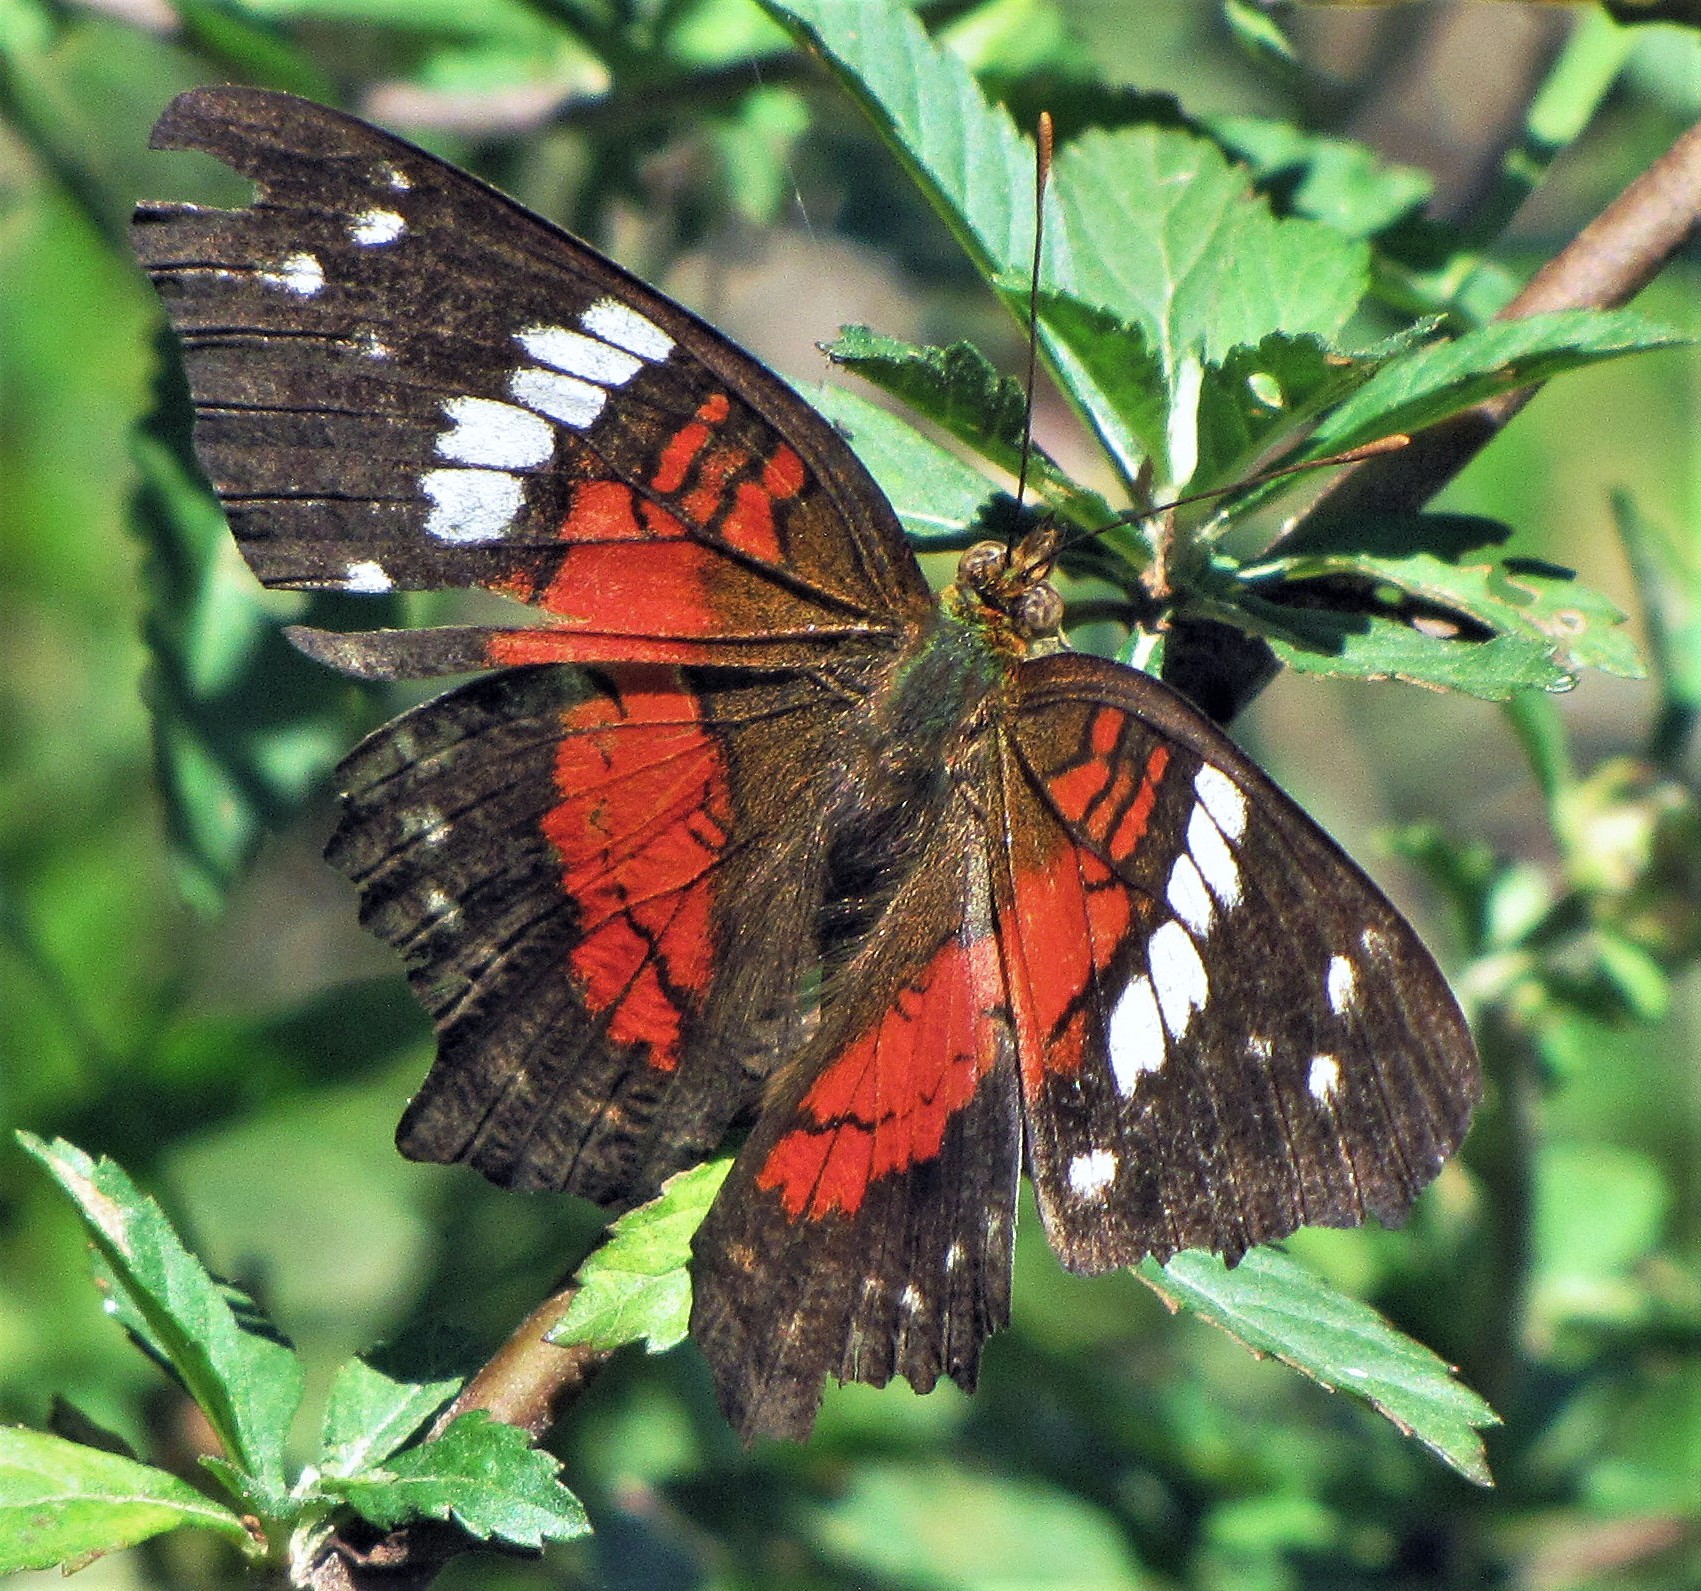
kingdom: Animalia
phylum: Arthropoda
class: Insecta
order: Lepidoptera
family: Nymphalidae
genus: Anartia
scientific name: Anartia amathea
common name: Red peacock
